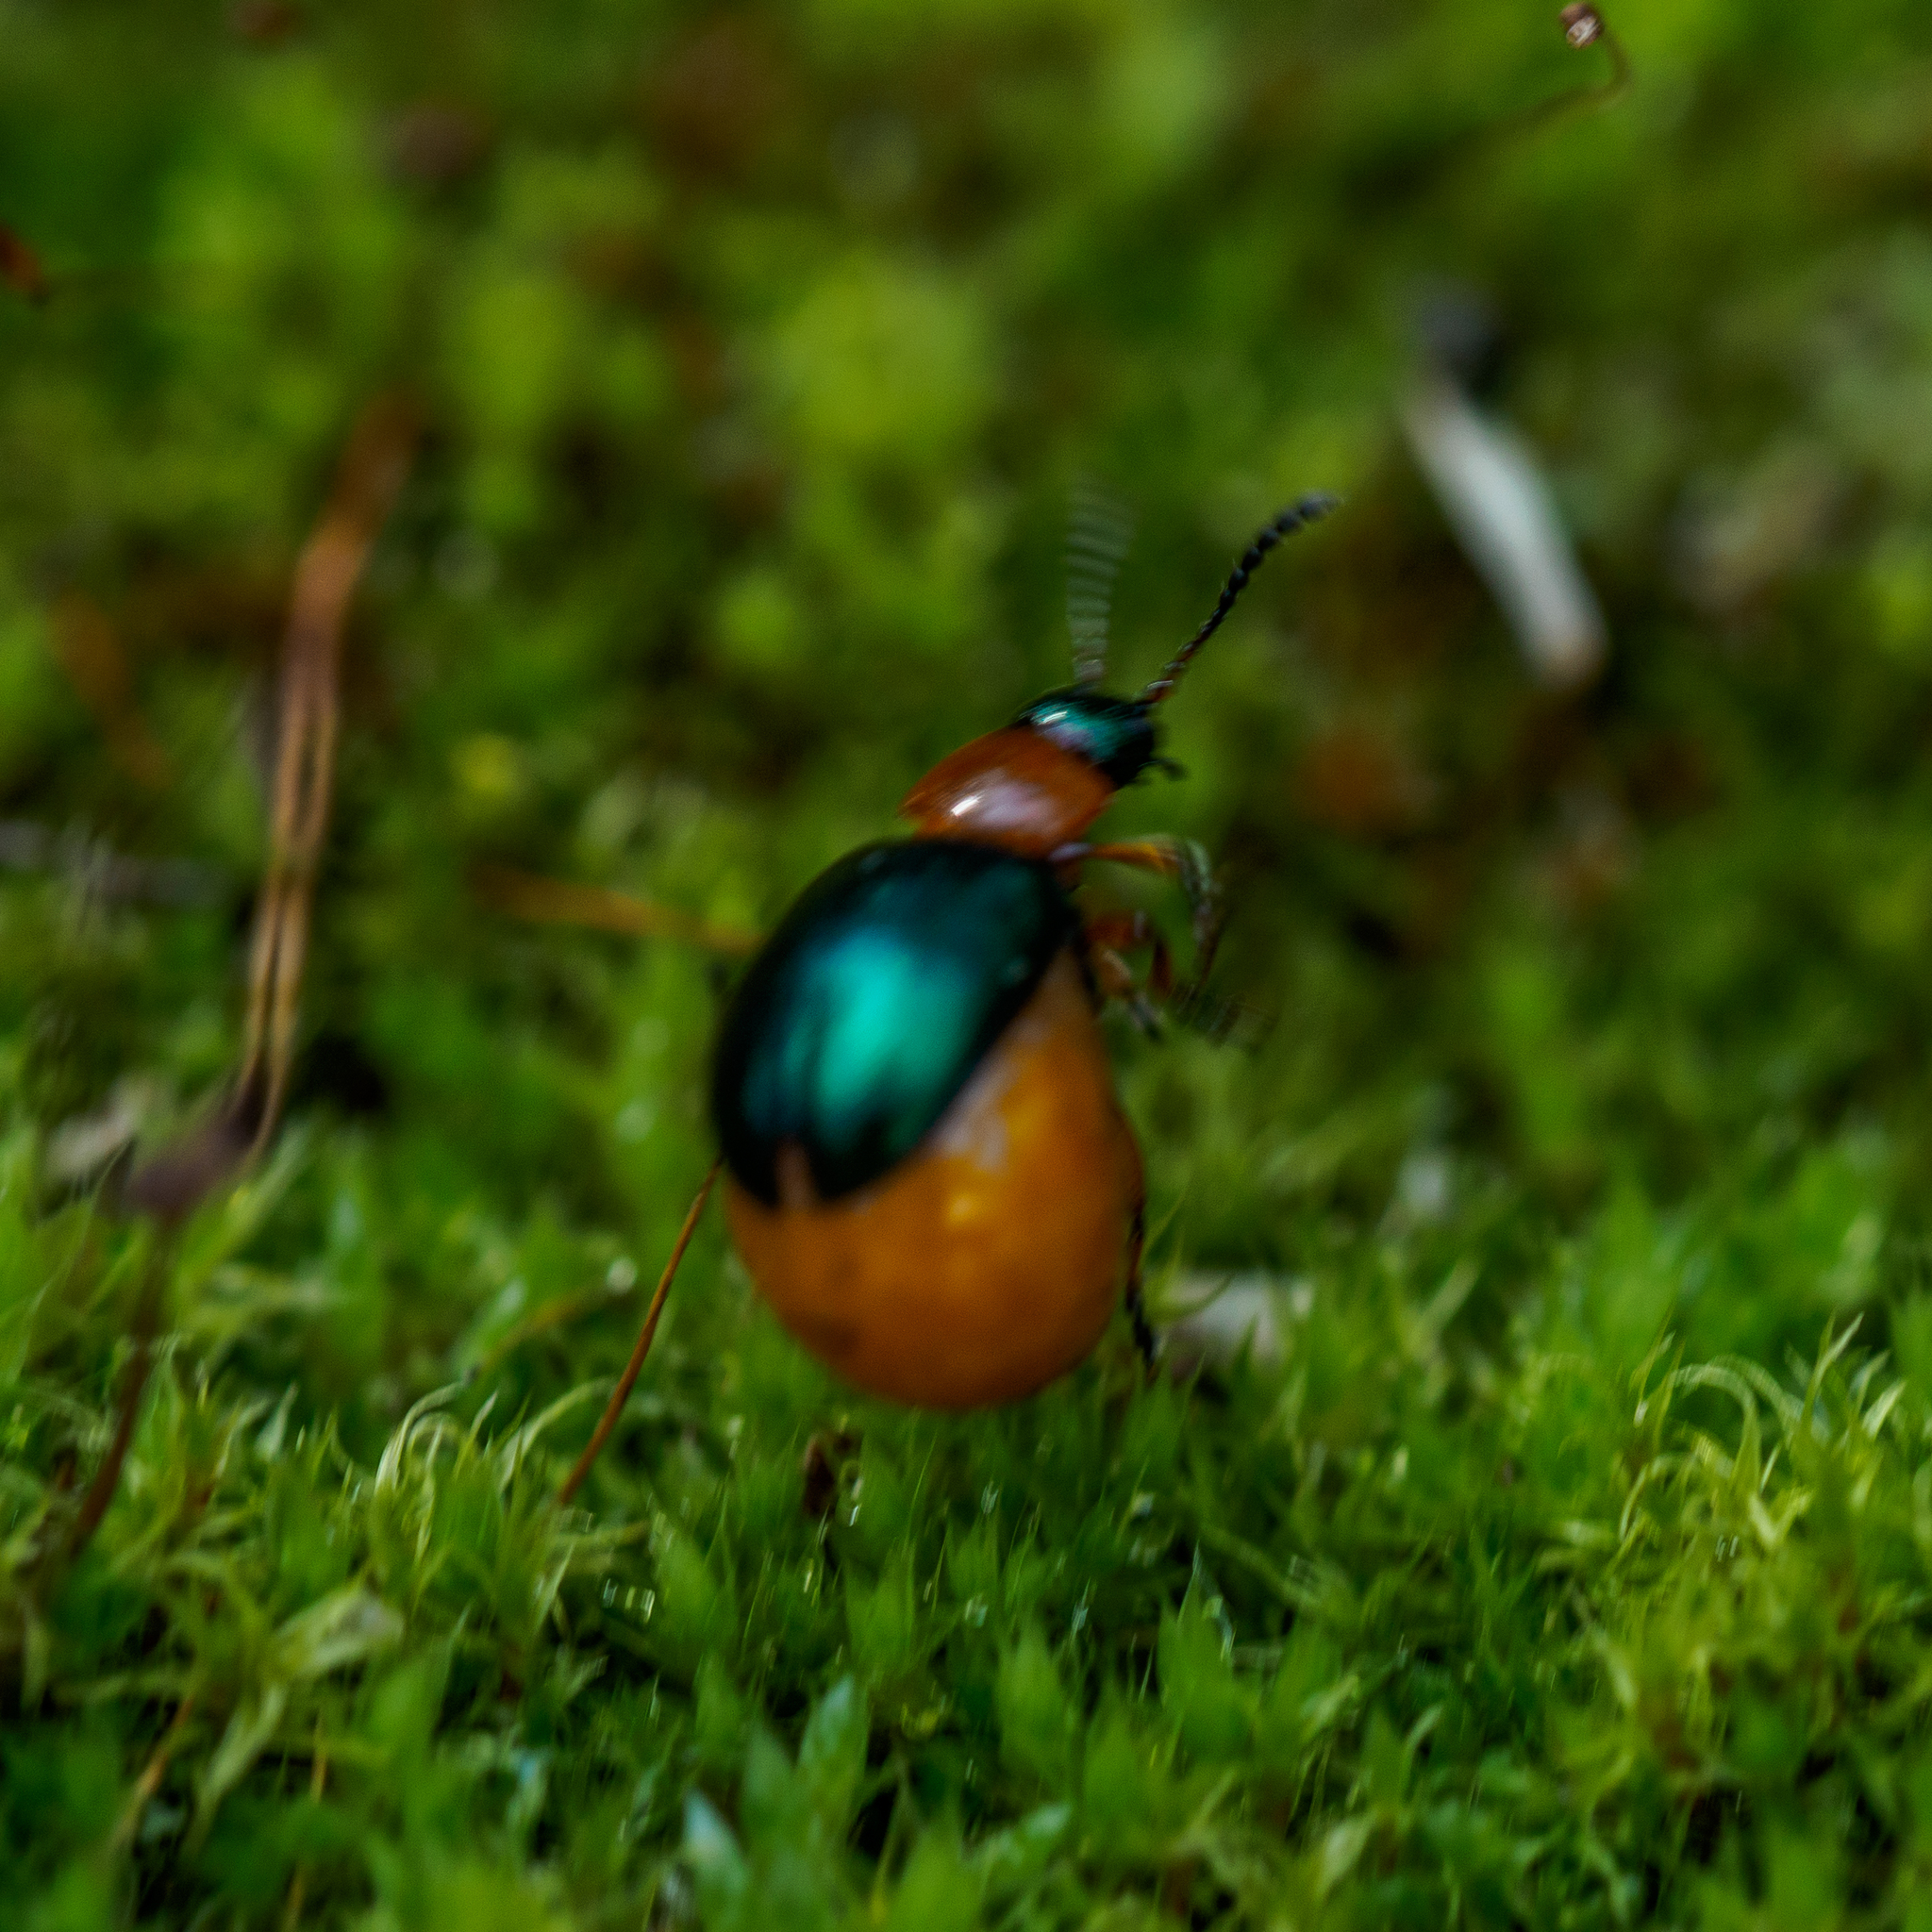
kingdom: Animalia
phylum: Arthropoda
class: Insecta
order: Coleoptera
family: Chrysomelidae
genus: Gastrophysa
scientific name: Gastrophysa polygoni
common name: Knotweed leaf beetle
